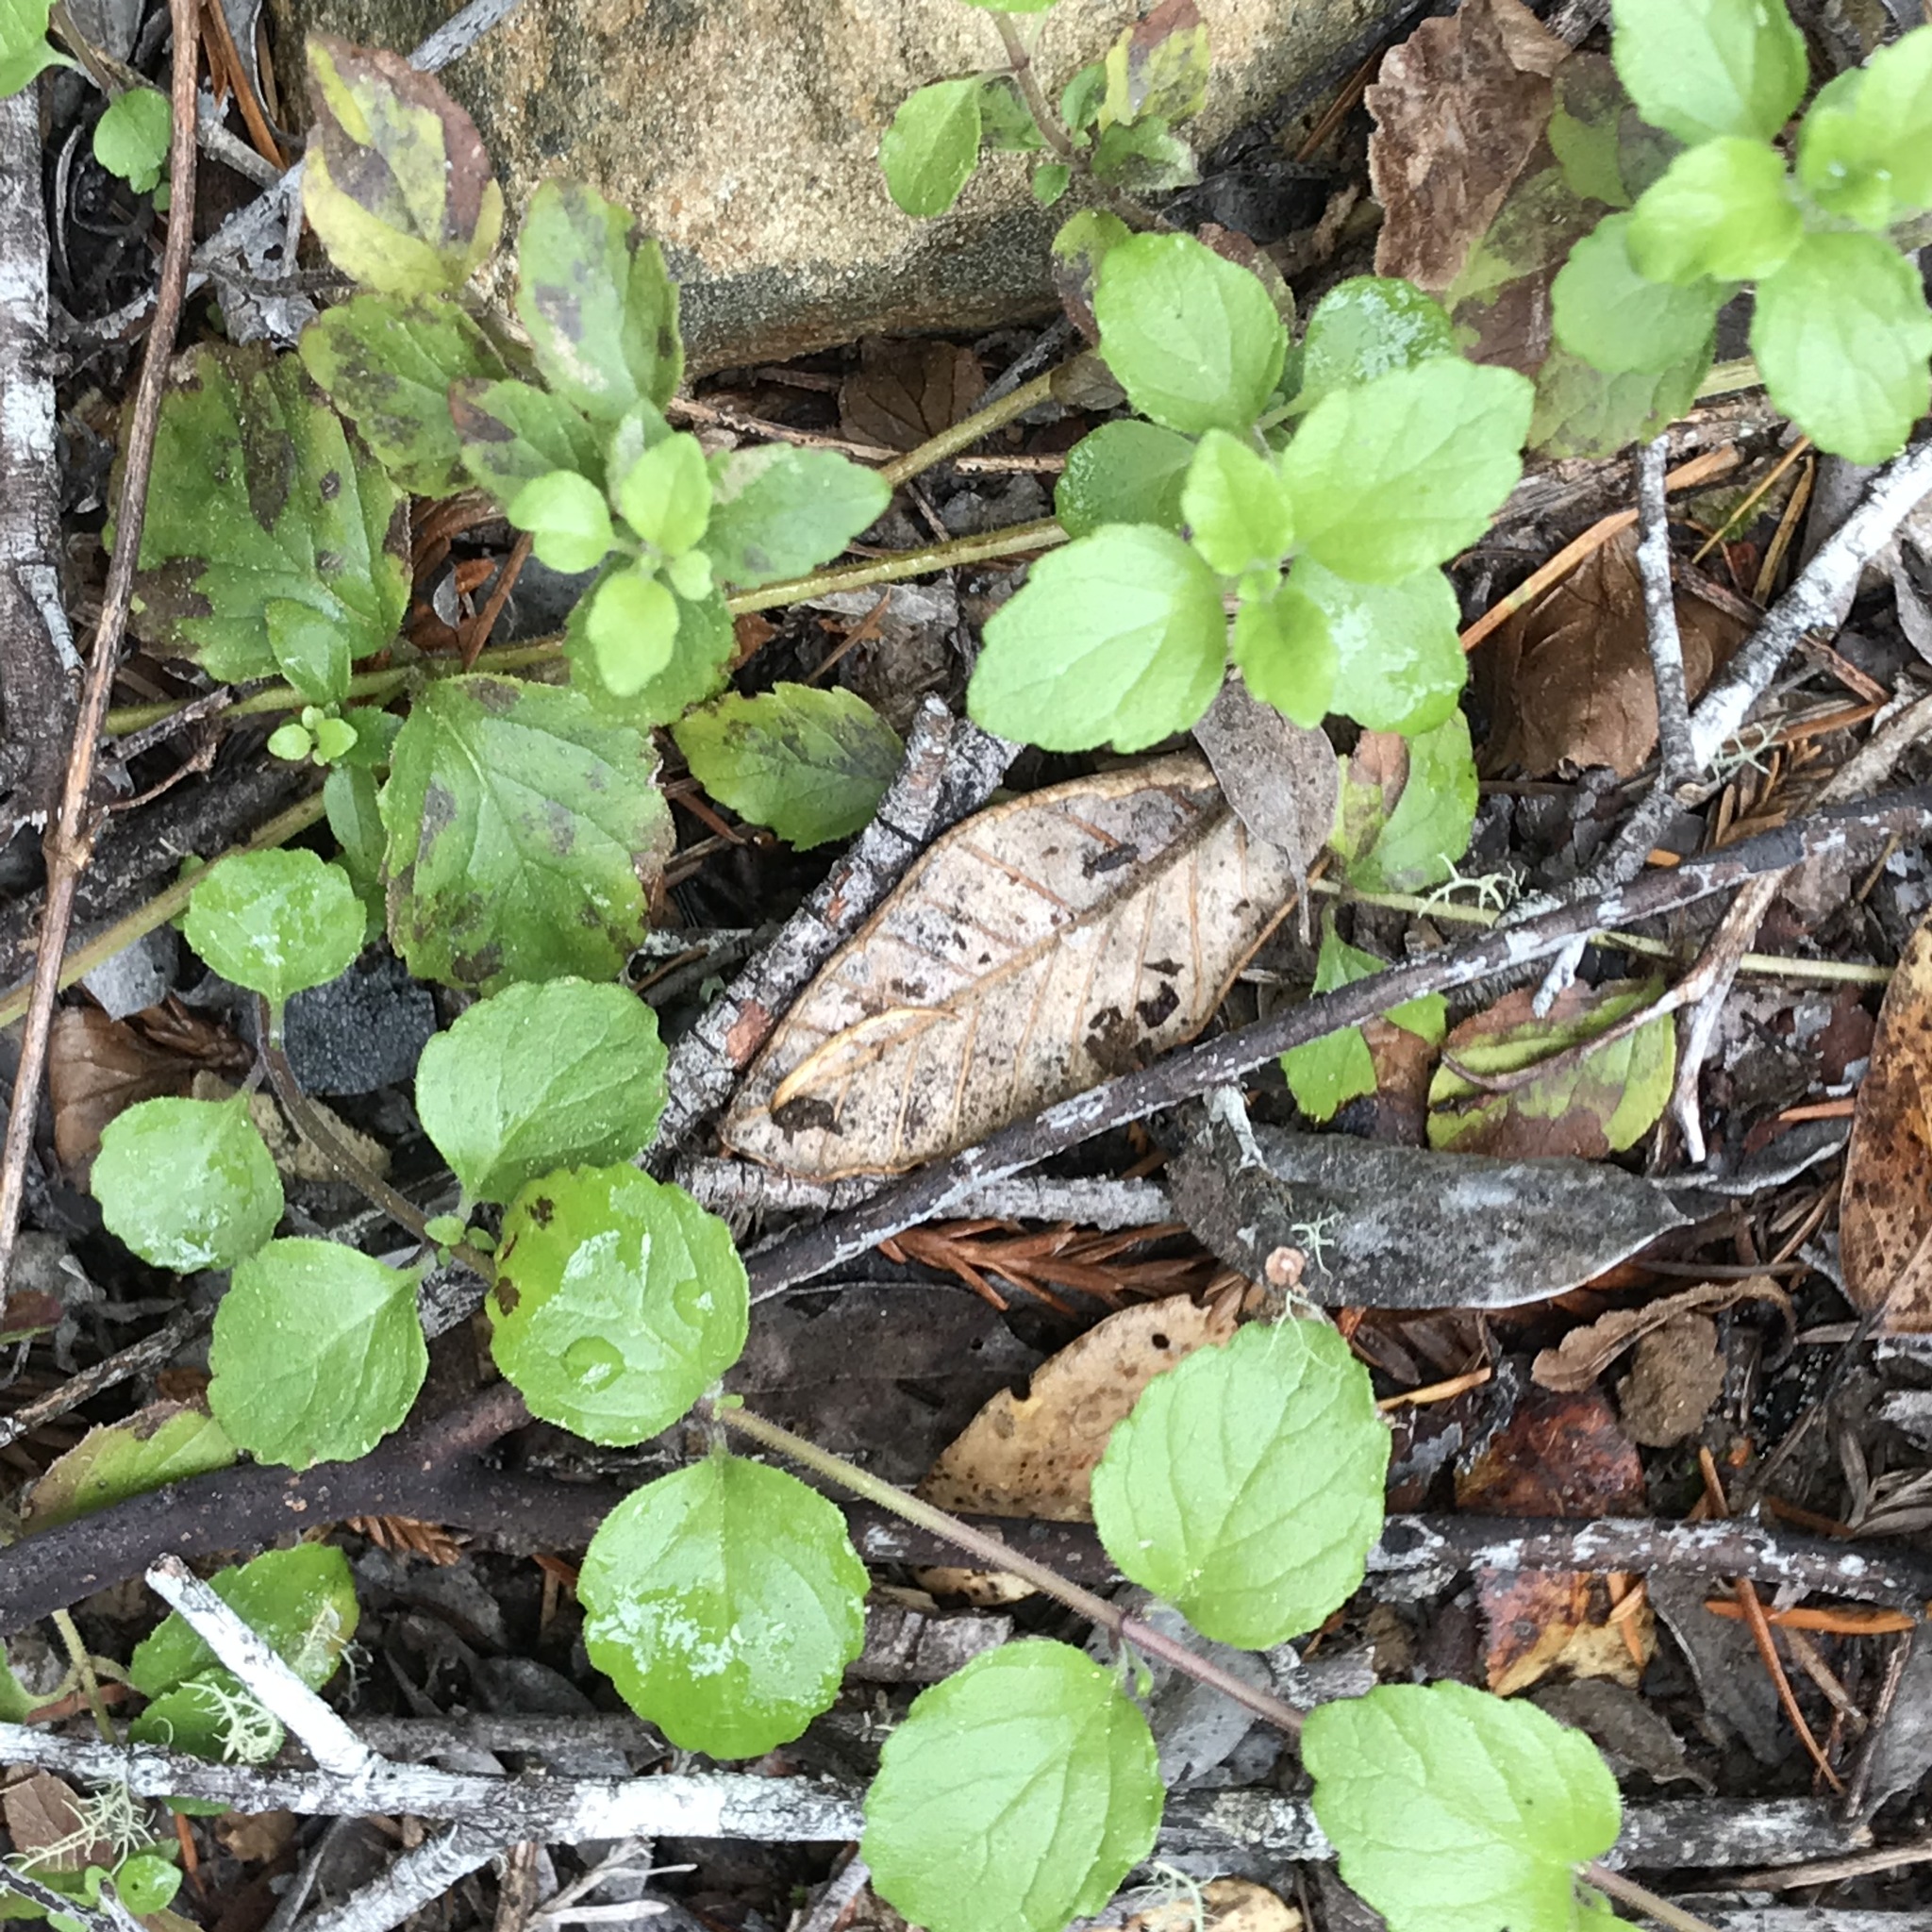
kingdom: Plantae
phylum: Tracheophyta
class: Magnoliopsida
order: Lamiales
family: Lamiaceae
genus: Micromeria
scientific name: Micromeria douglasii
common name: Yerba buena
